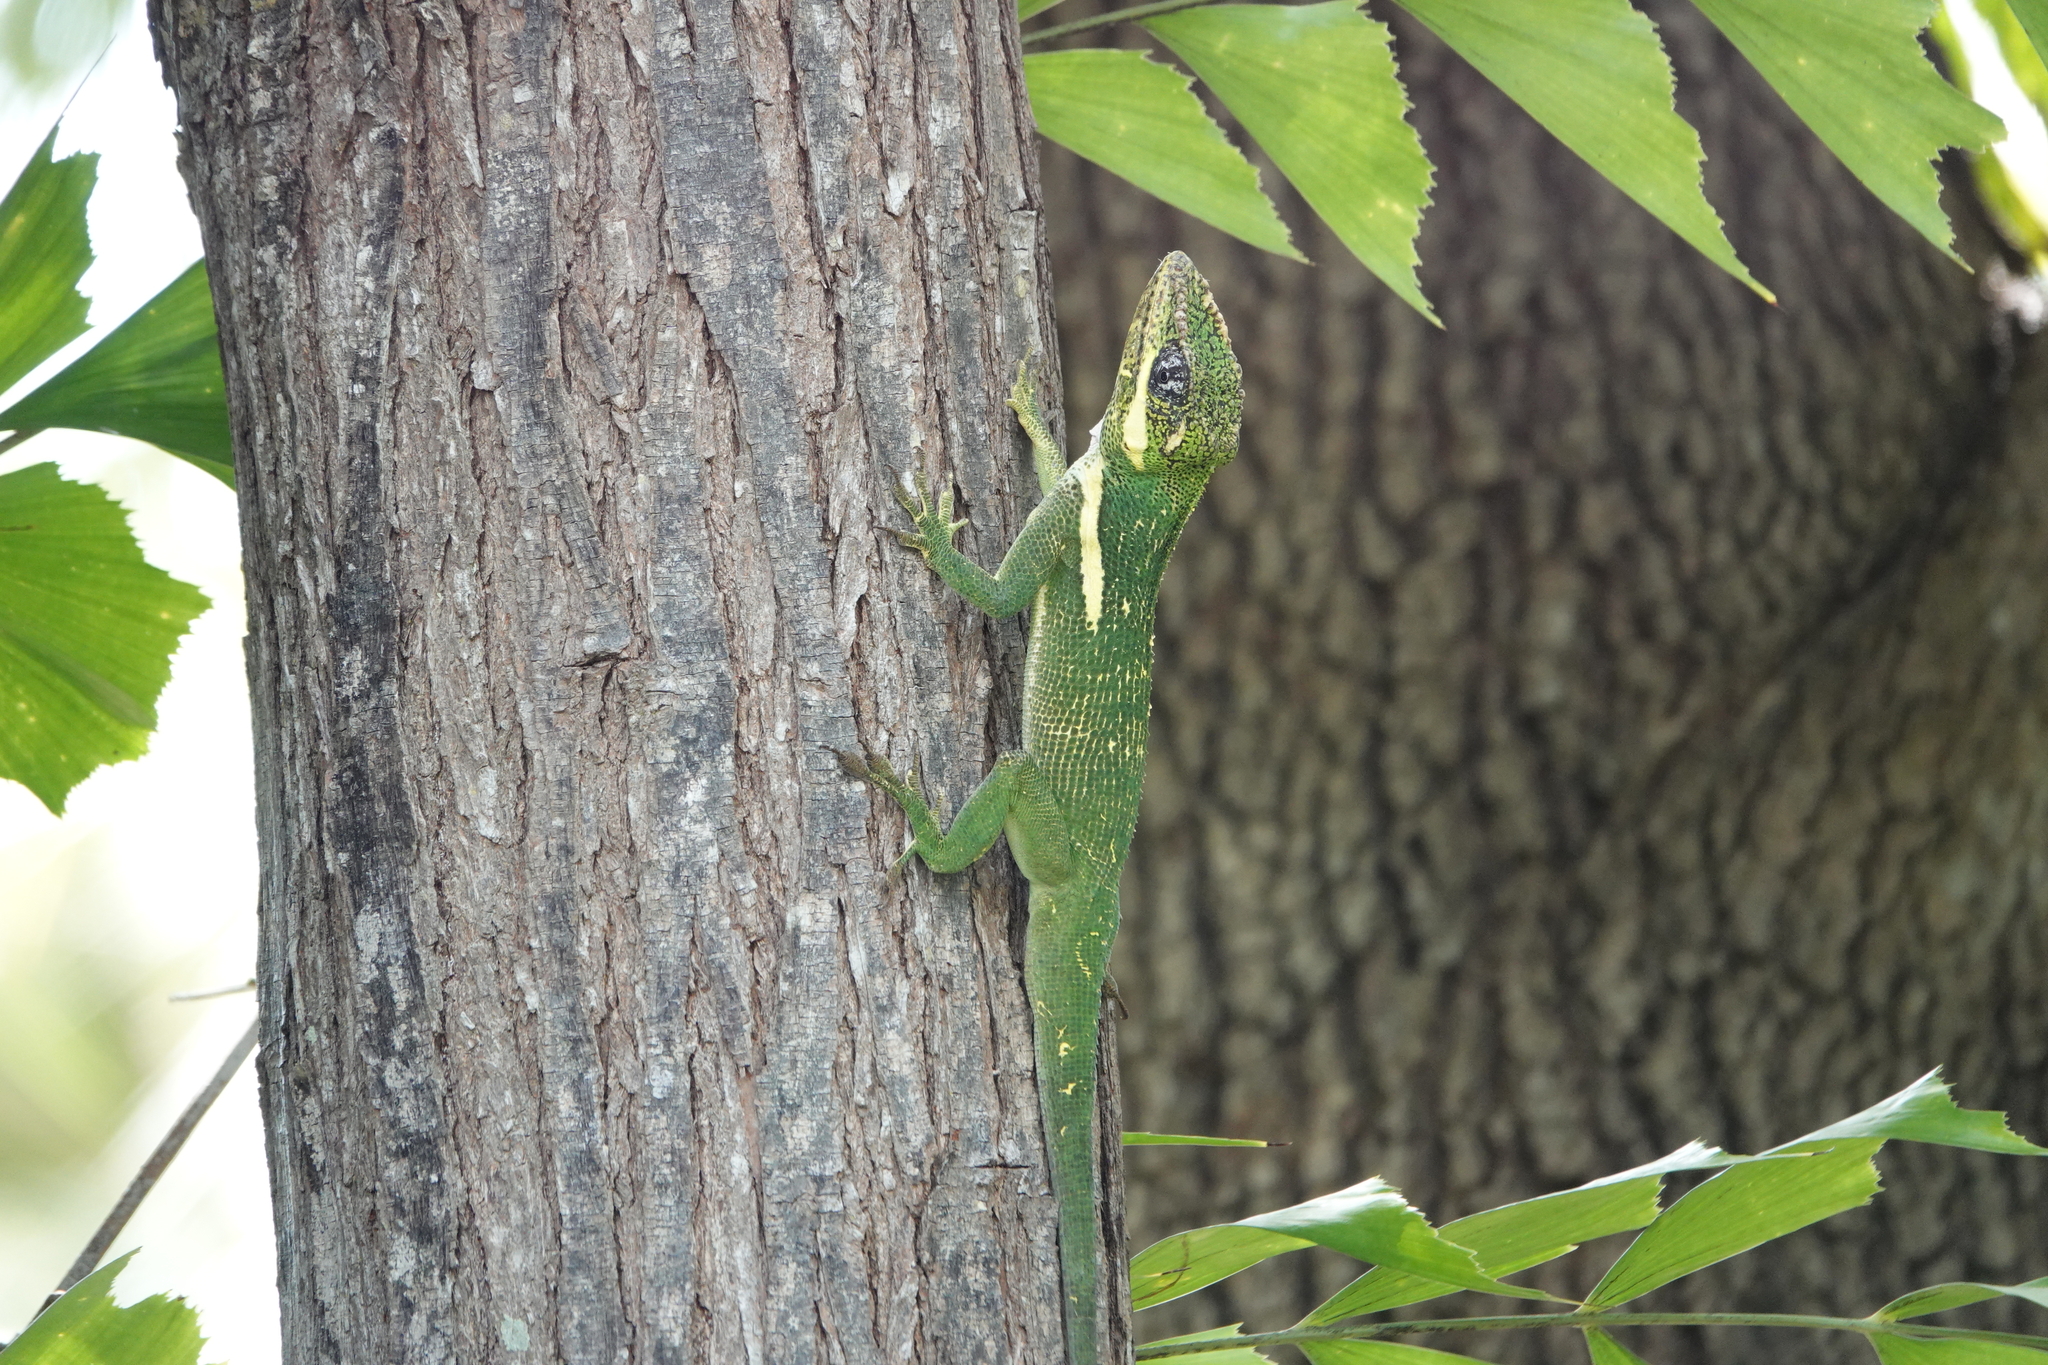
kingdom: Animalia
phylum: Chordata
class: Squamata
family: Dactyloidae
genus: Anolis
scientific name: Anolis equestris
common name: Knight anole
